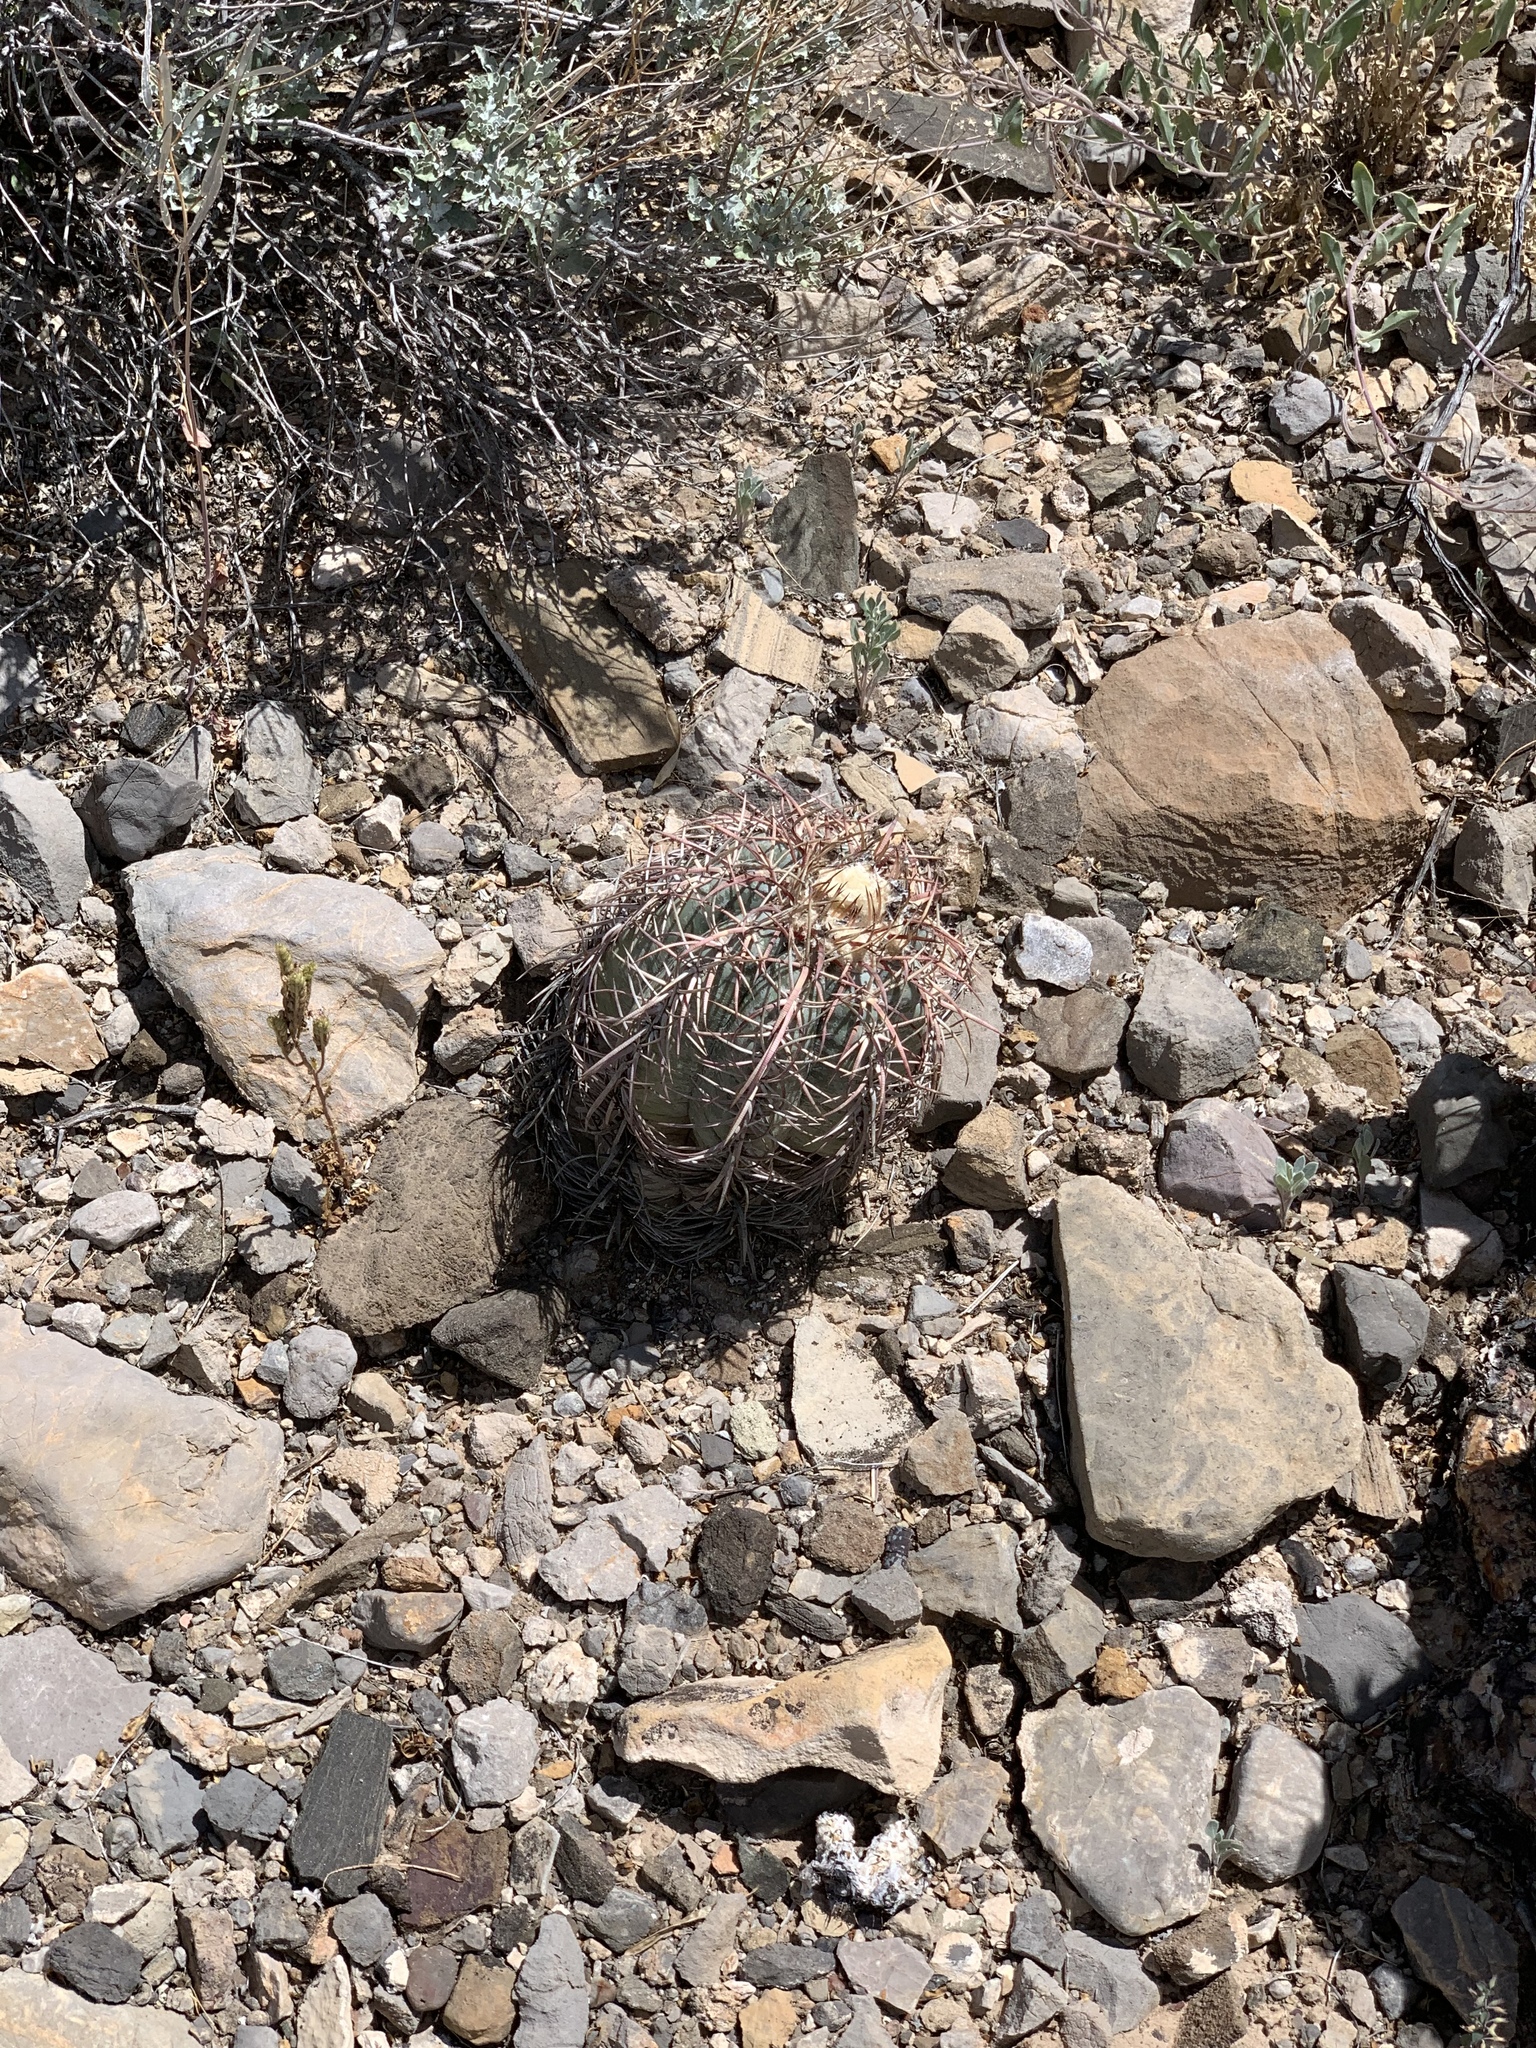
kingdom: Plantae
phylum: Tracheophyta
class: Magnoliopsida
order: Caryophyllales
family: Cactaceae
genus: Echinocactus
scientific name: Echinocactus horizonthalonius
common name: Devilshead
